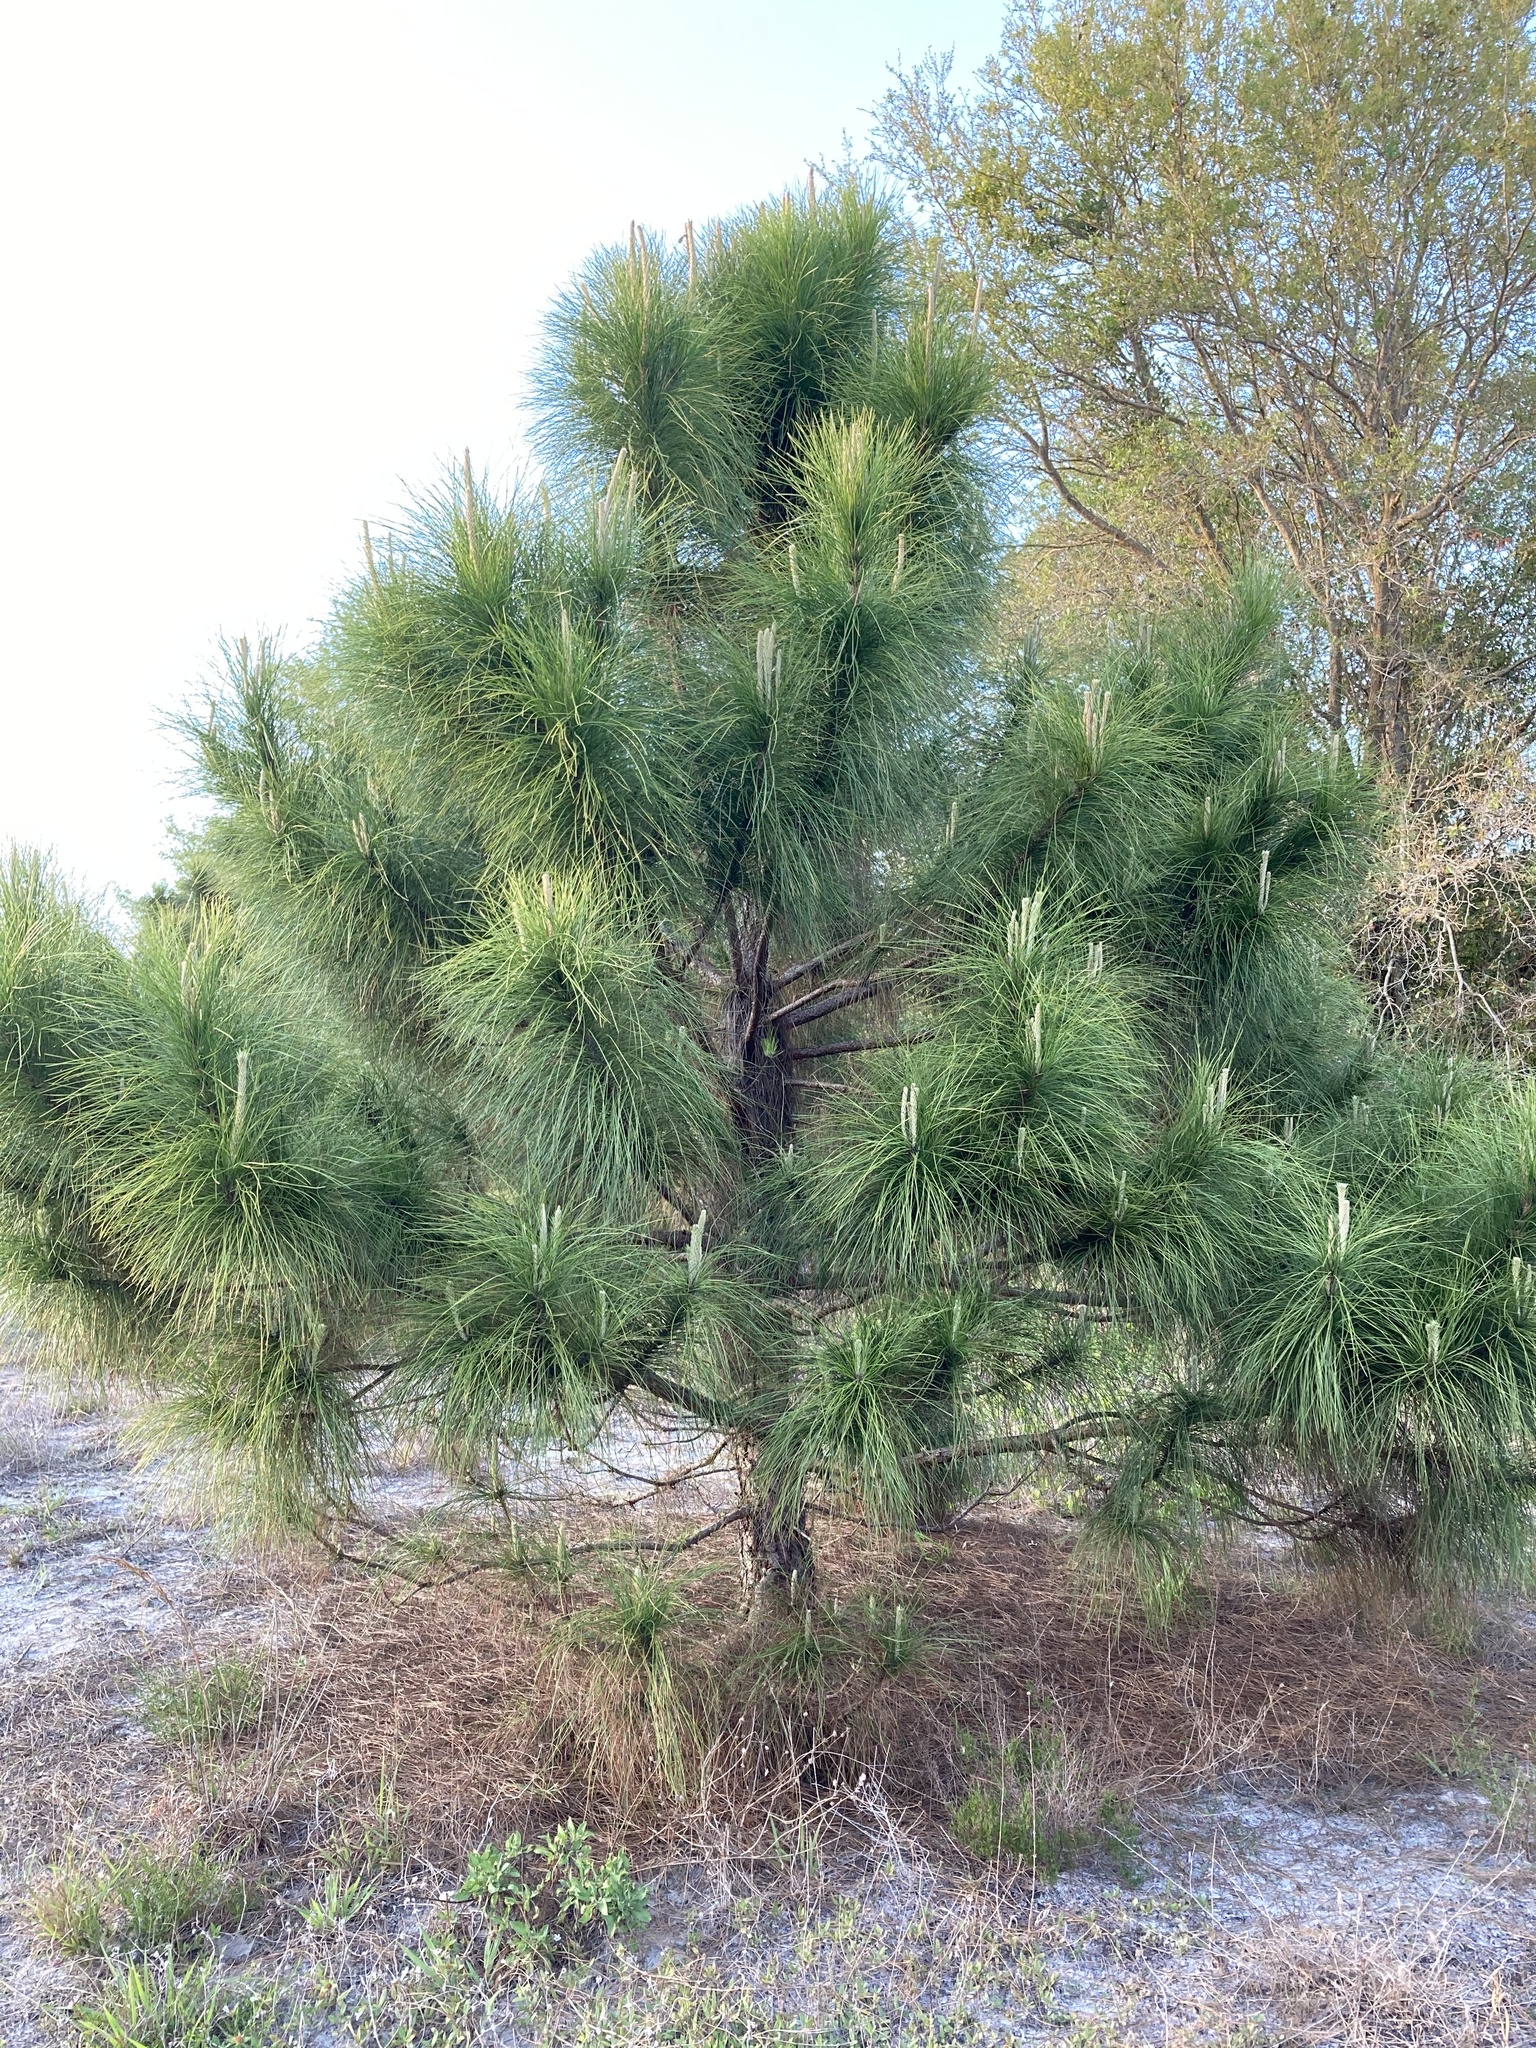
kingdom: Plantae
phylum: Tracheophyta
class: Pinopsida
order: Pinales
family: Pinaceae
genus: Pinus
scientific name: Pinus elliottii
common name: Slash pine
